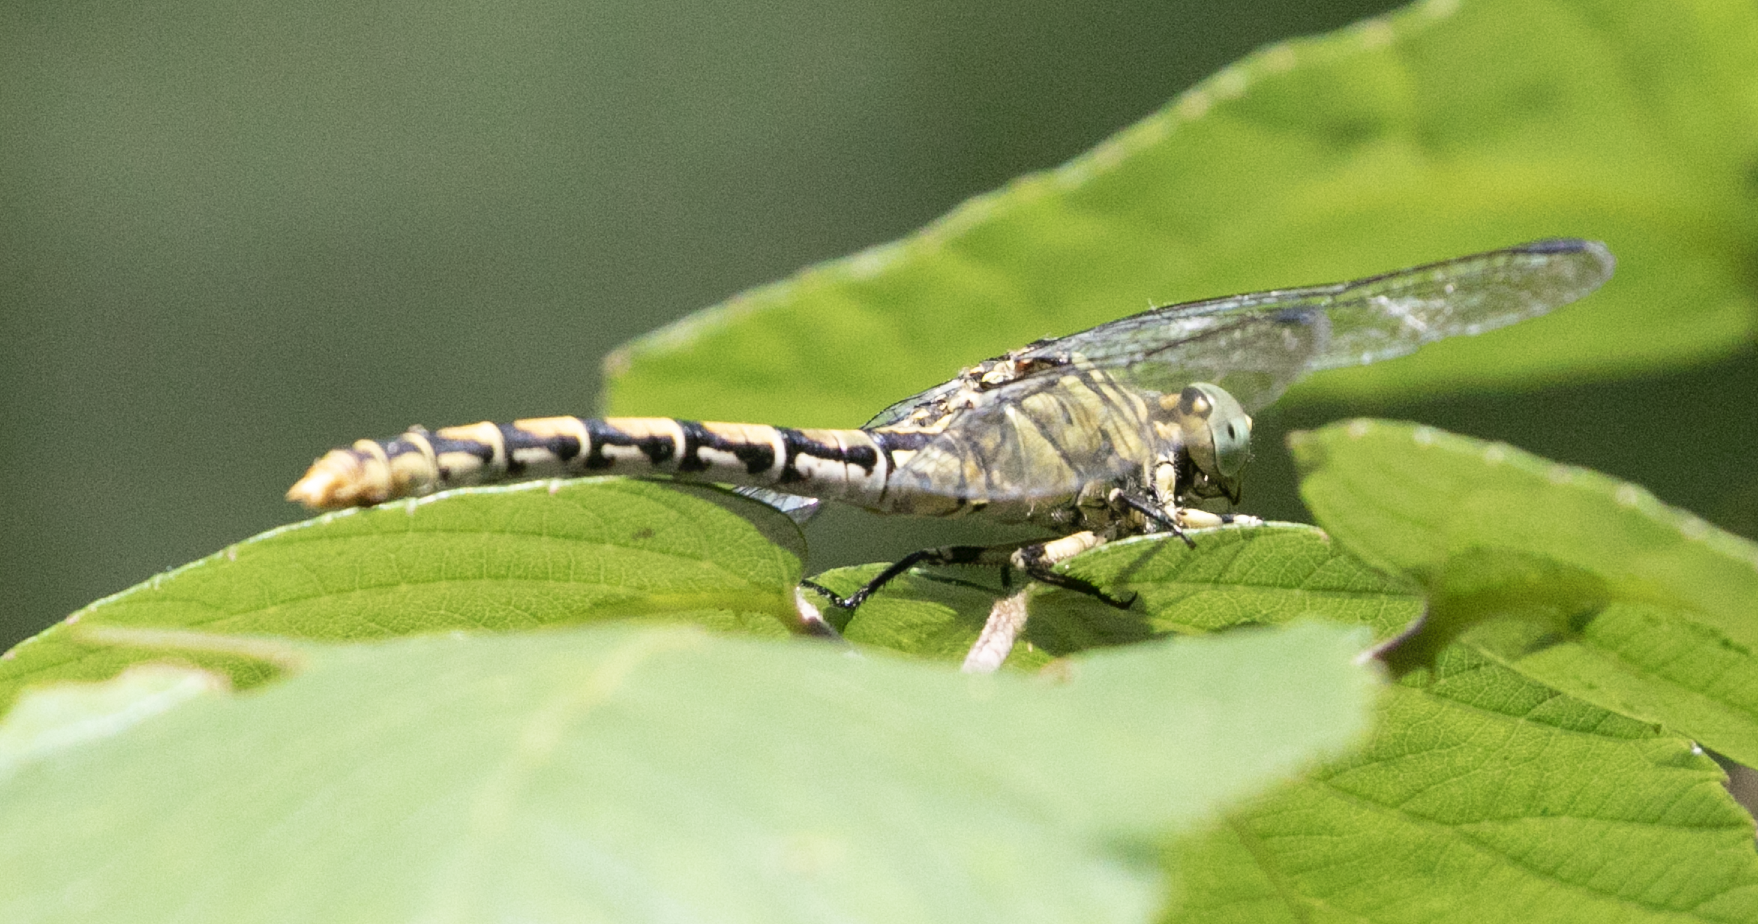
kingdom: Animalia
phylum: Arthropoda
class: Insecta
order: Odonata
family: Gomphidae
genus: Onychogomphus
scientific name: Onychogomphus forcipatus
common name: Small pincertail
